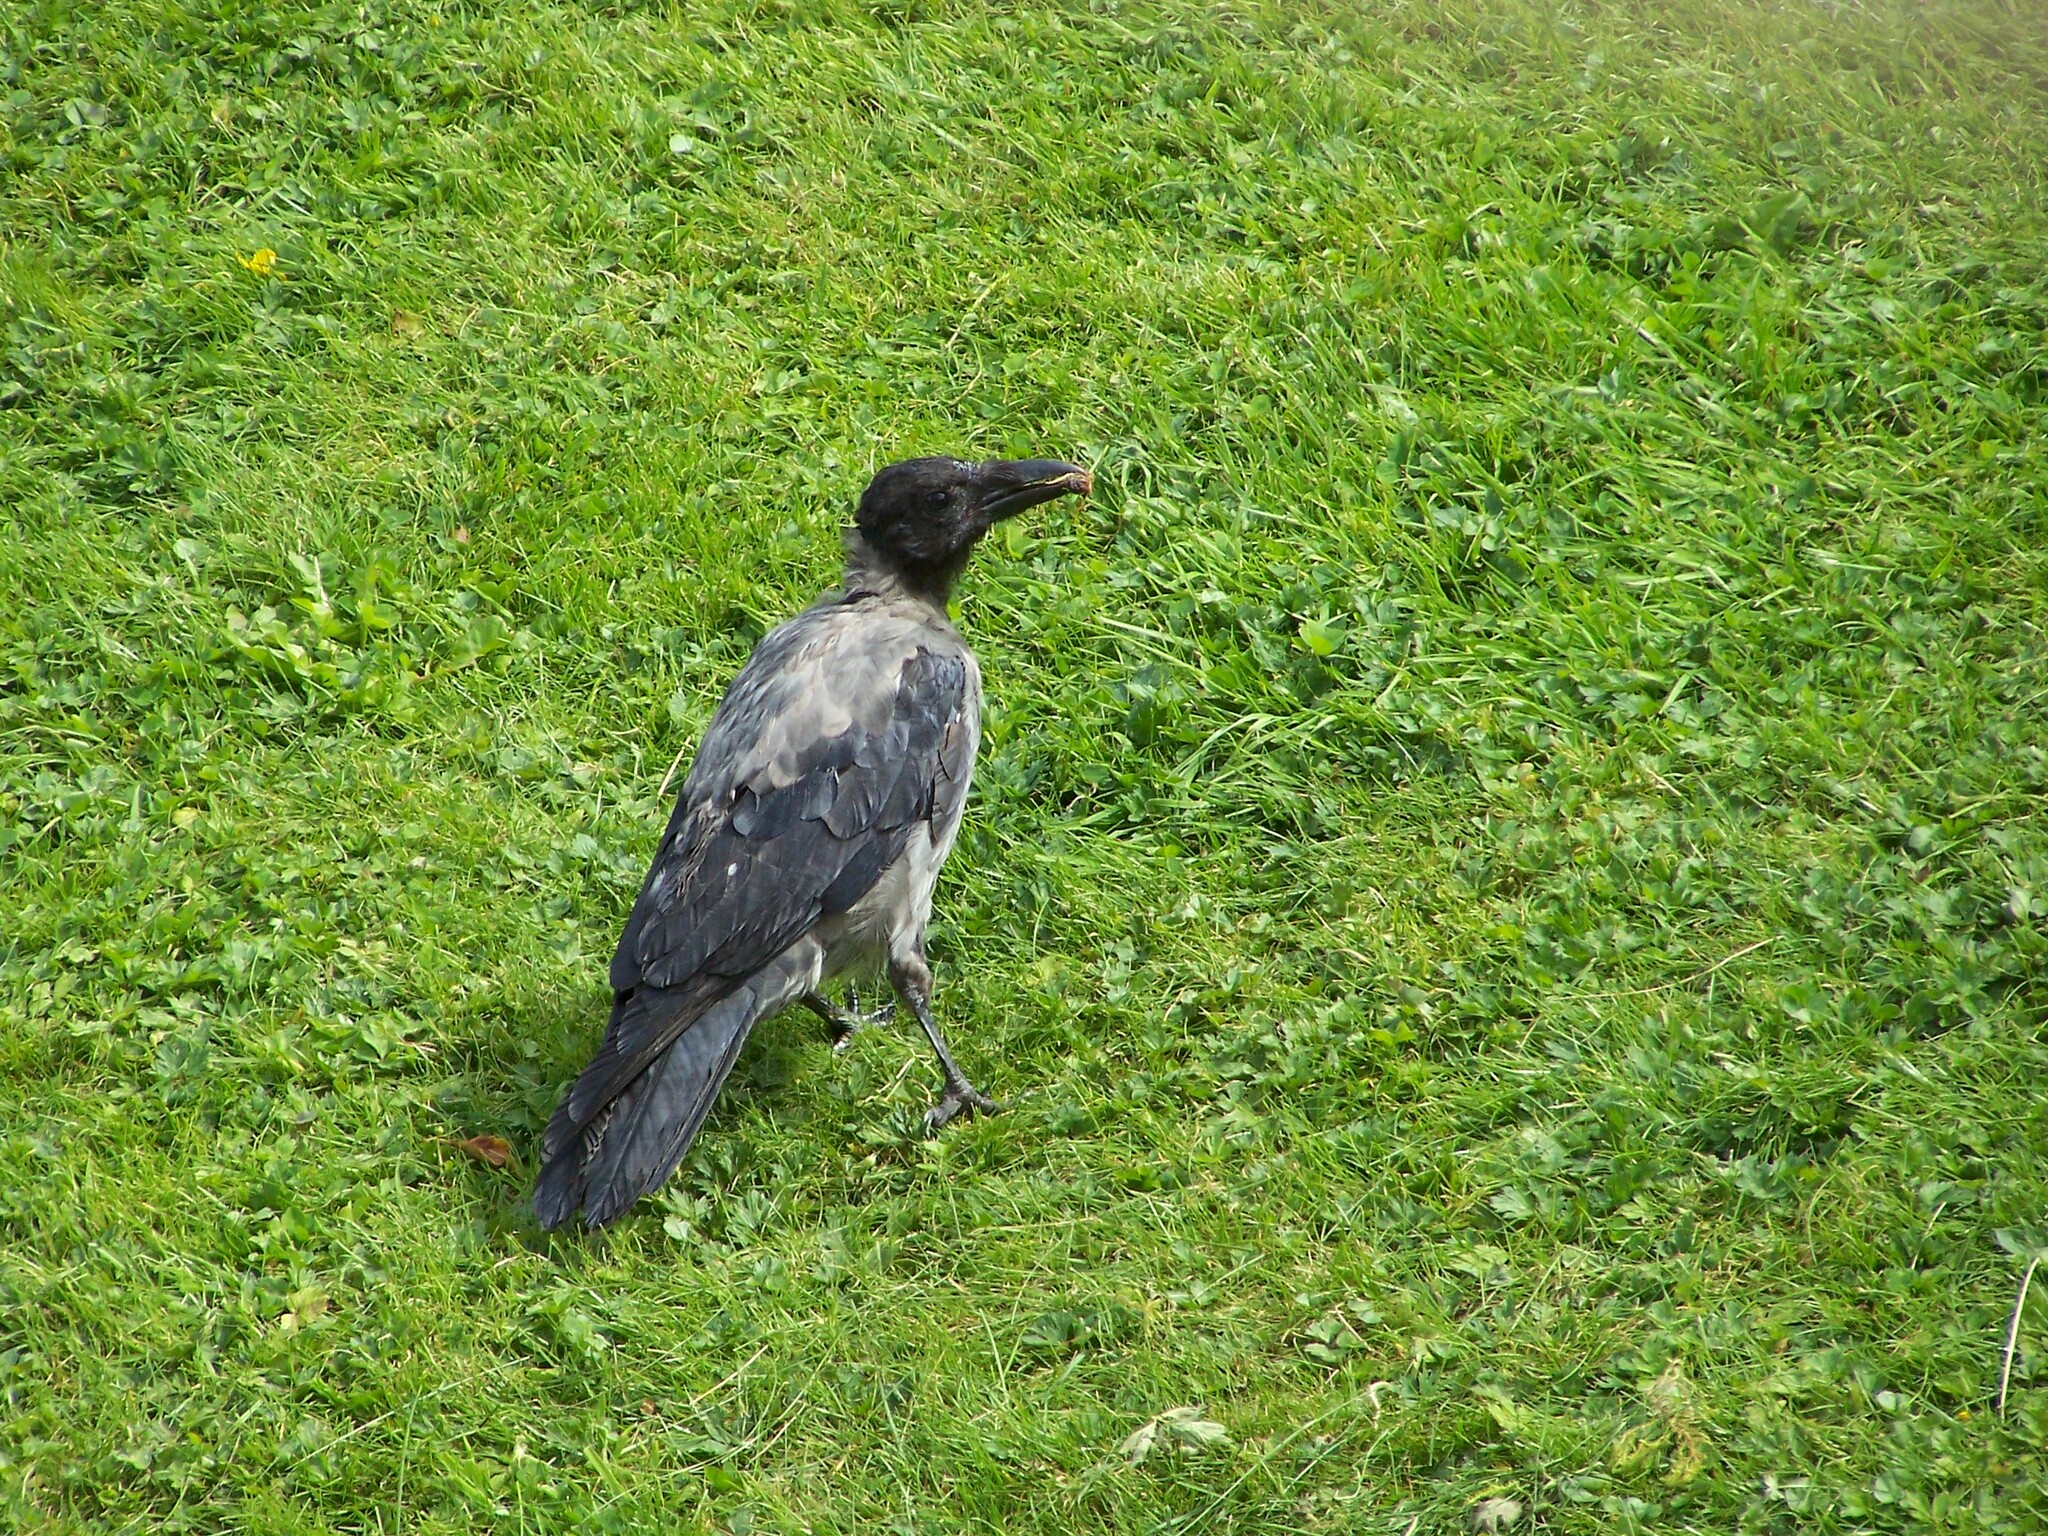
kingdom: Animalia
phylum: Chordata
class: Aves
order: Passeriformes
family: Corvidae
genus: Corvus
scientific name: Corvus cornix
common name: Hooded crow
